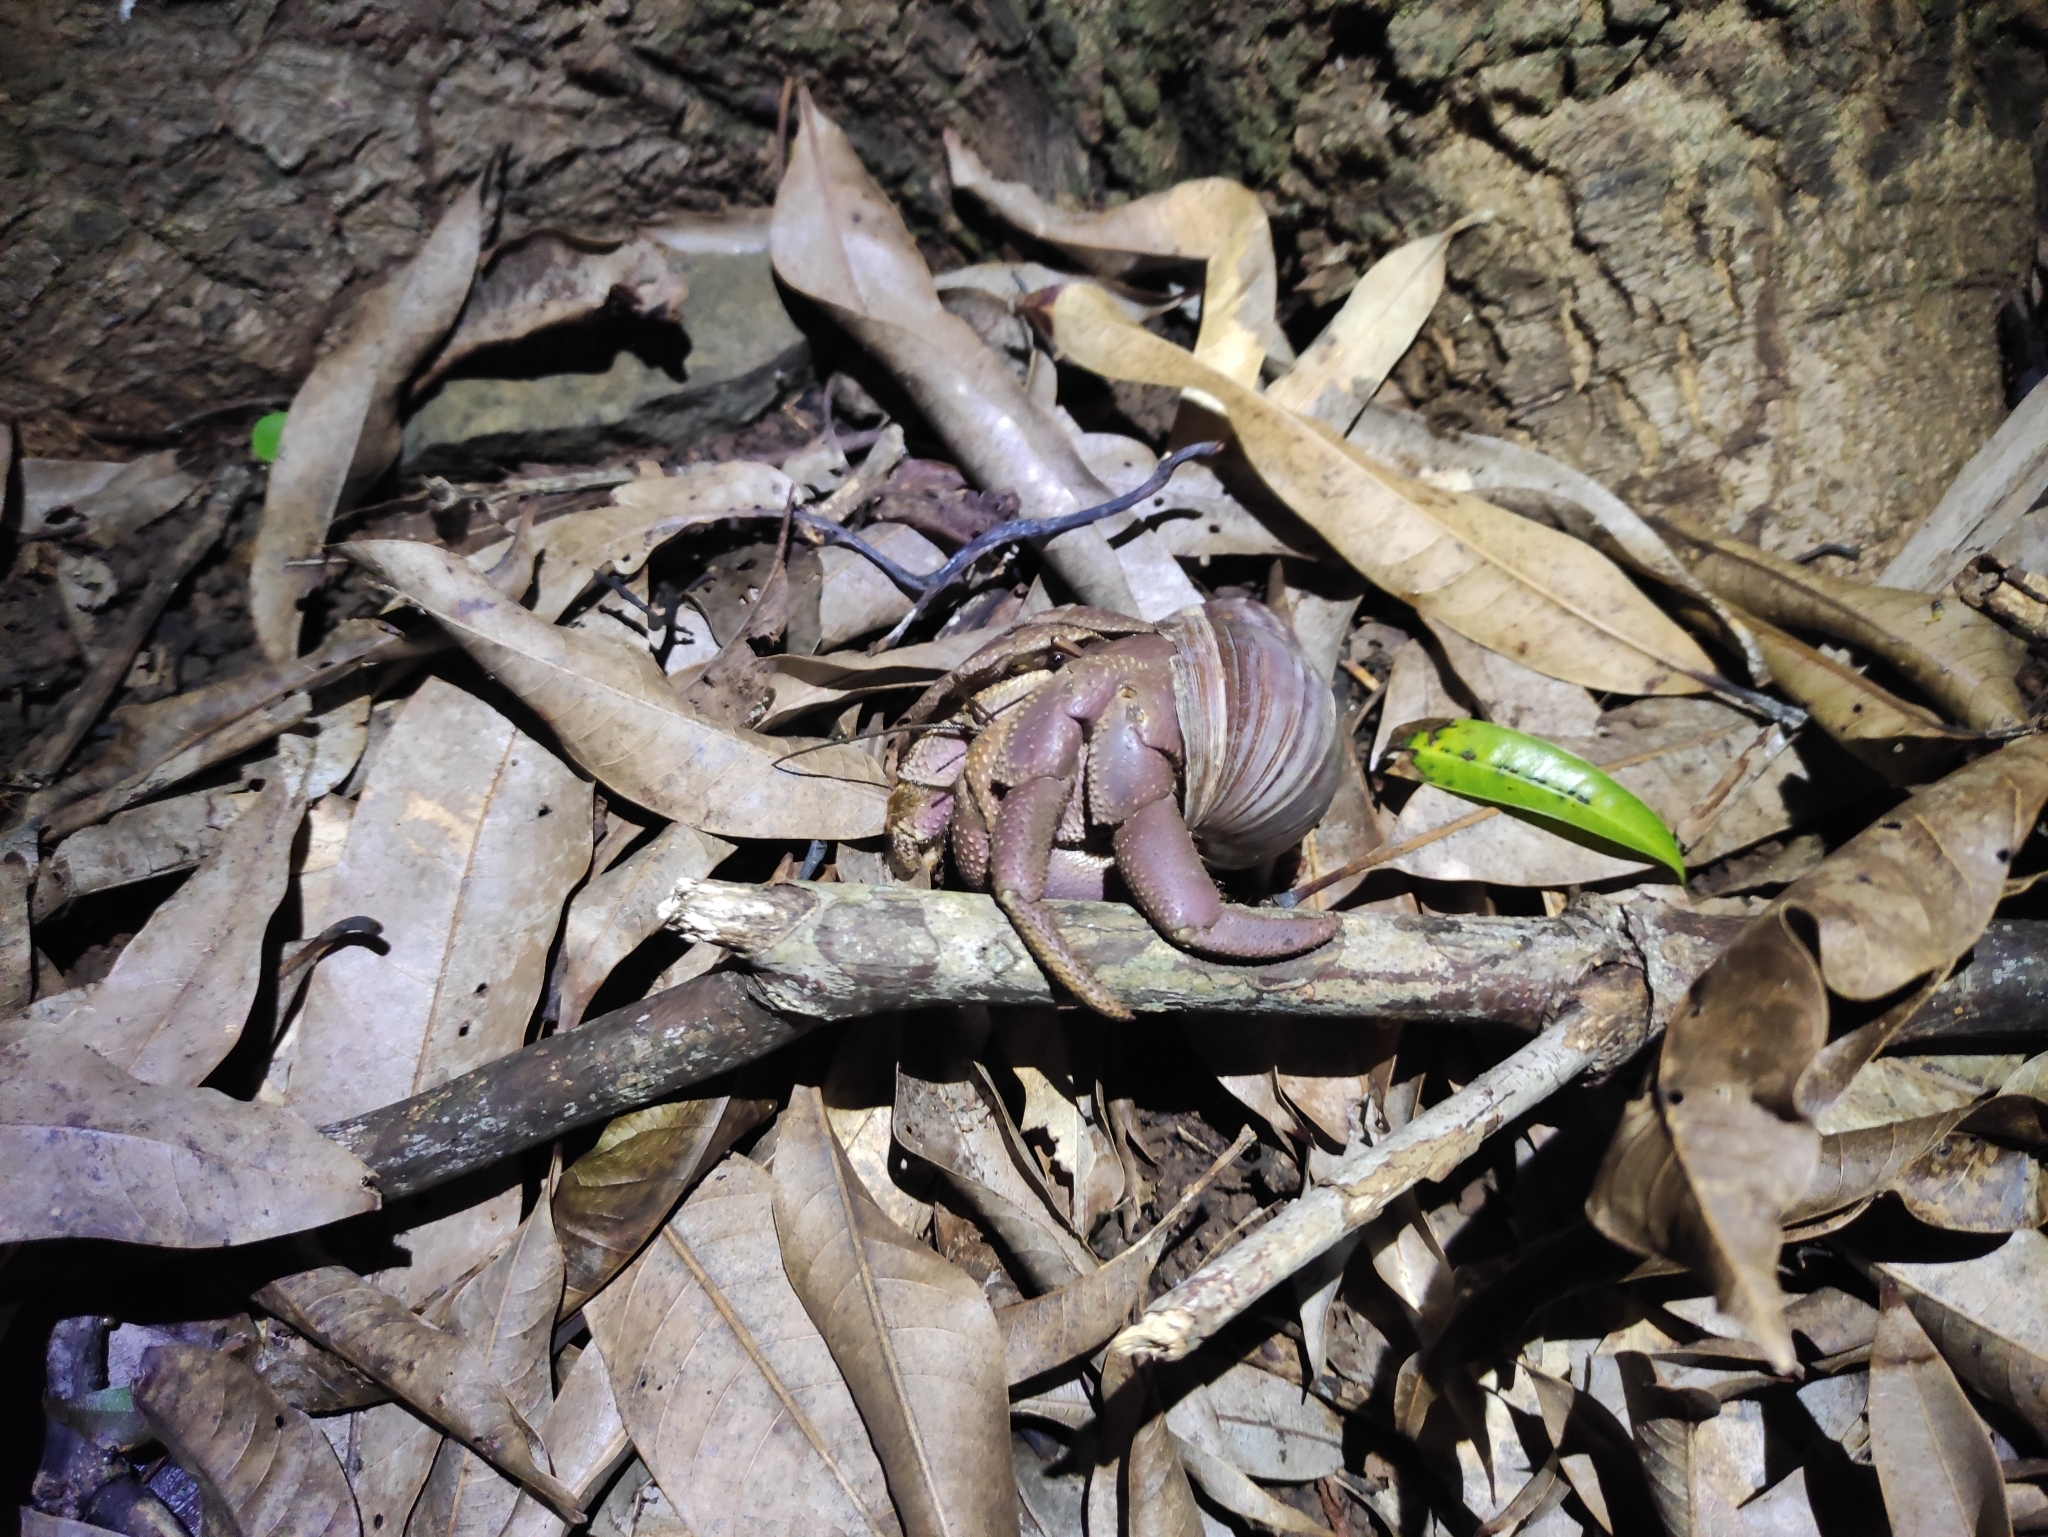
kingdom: Animalia
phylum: Arthropoda
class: Malacostraca
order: Decapoda
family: Coenobitidae
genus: Coenobita
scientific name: Coenobita brevimanus
